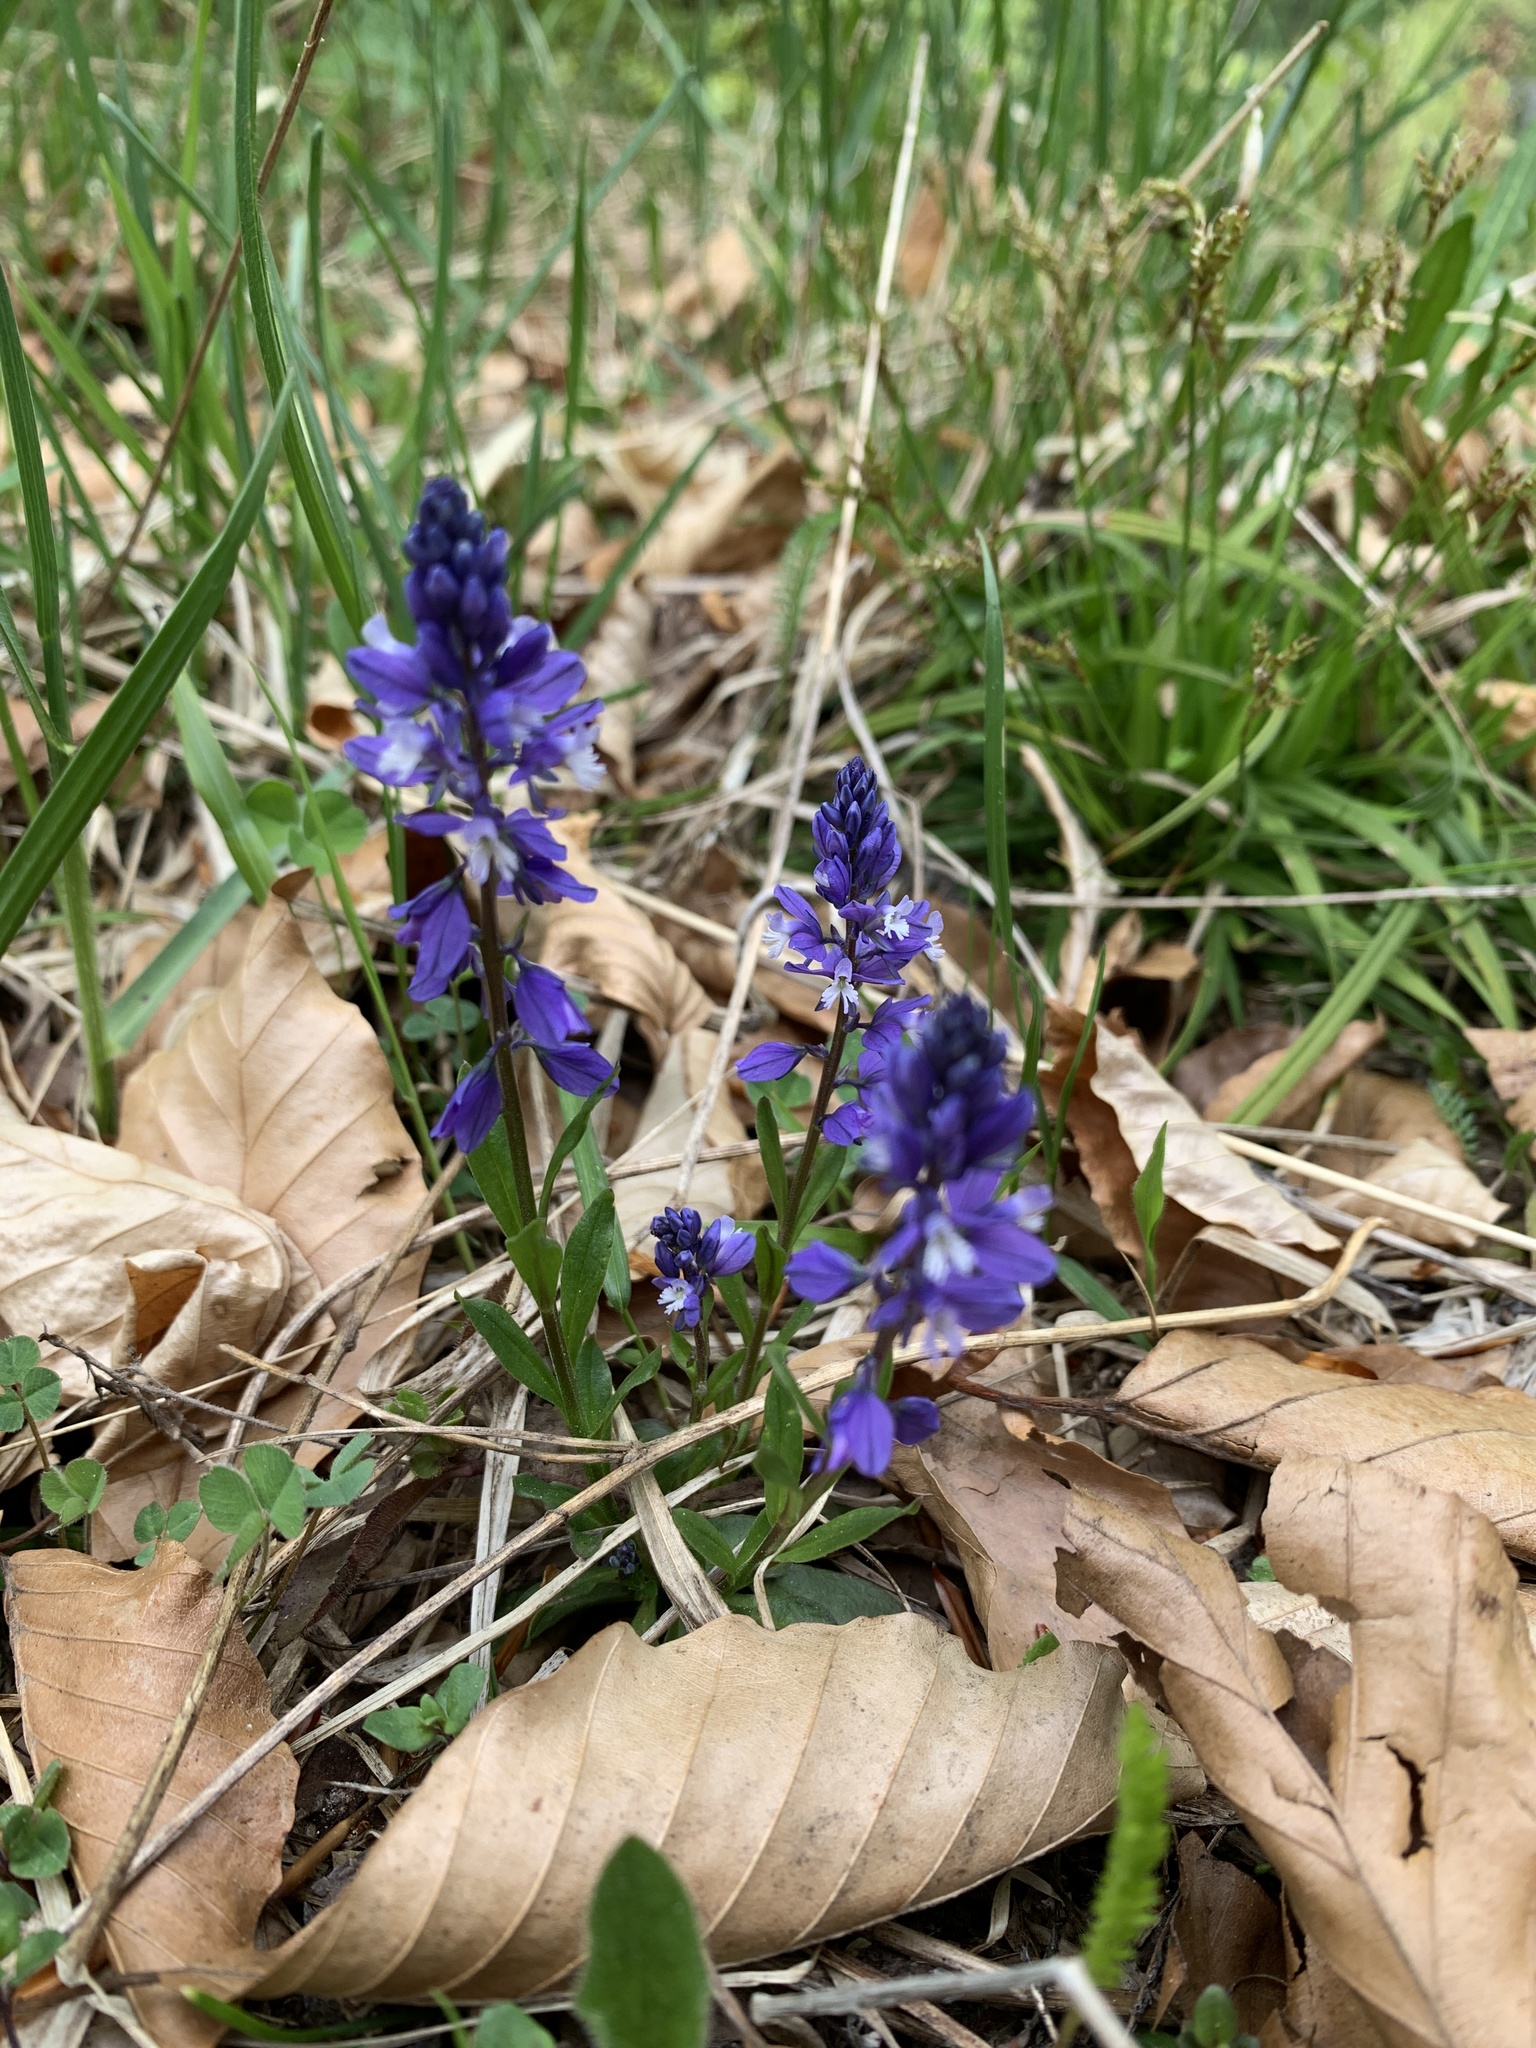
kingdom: Plantae
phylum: Tracheophyta
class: Magnoliopsida
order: Fabales
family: Polygalaceae
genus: Polygala
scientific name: Polygala amarella
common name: Dwarf milkwort
